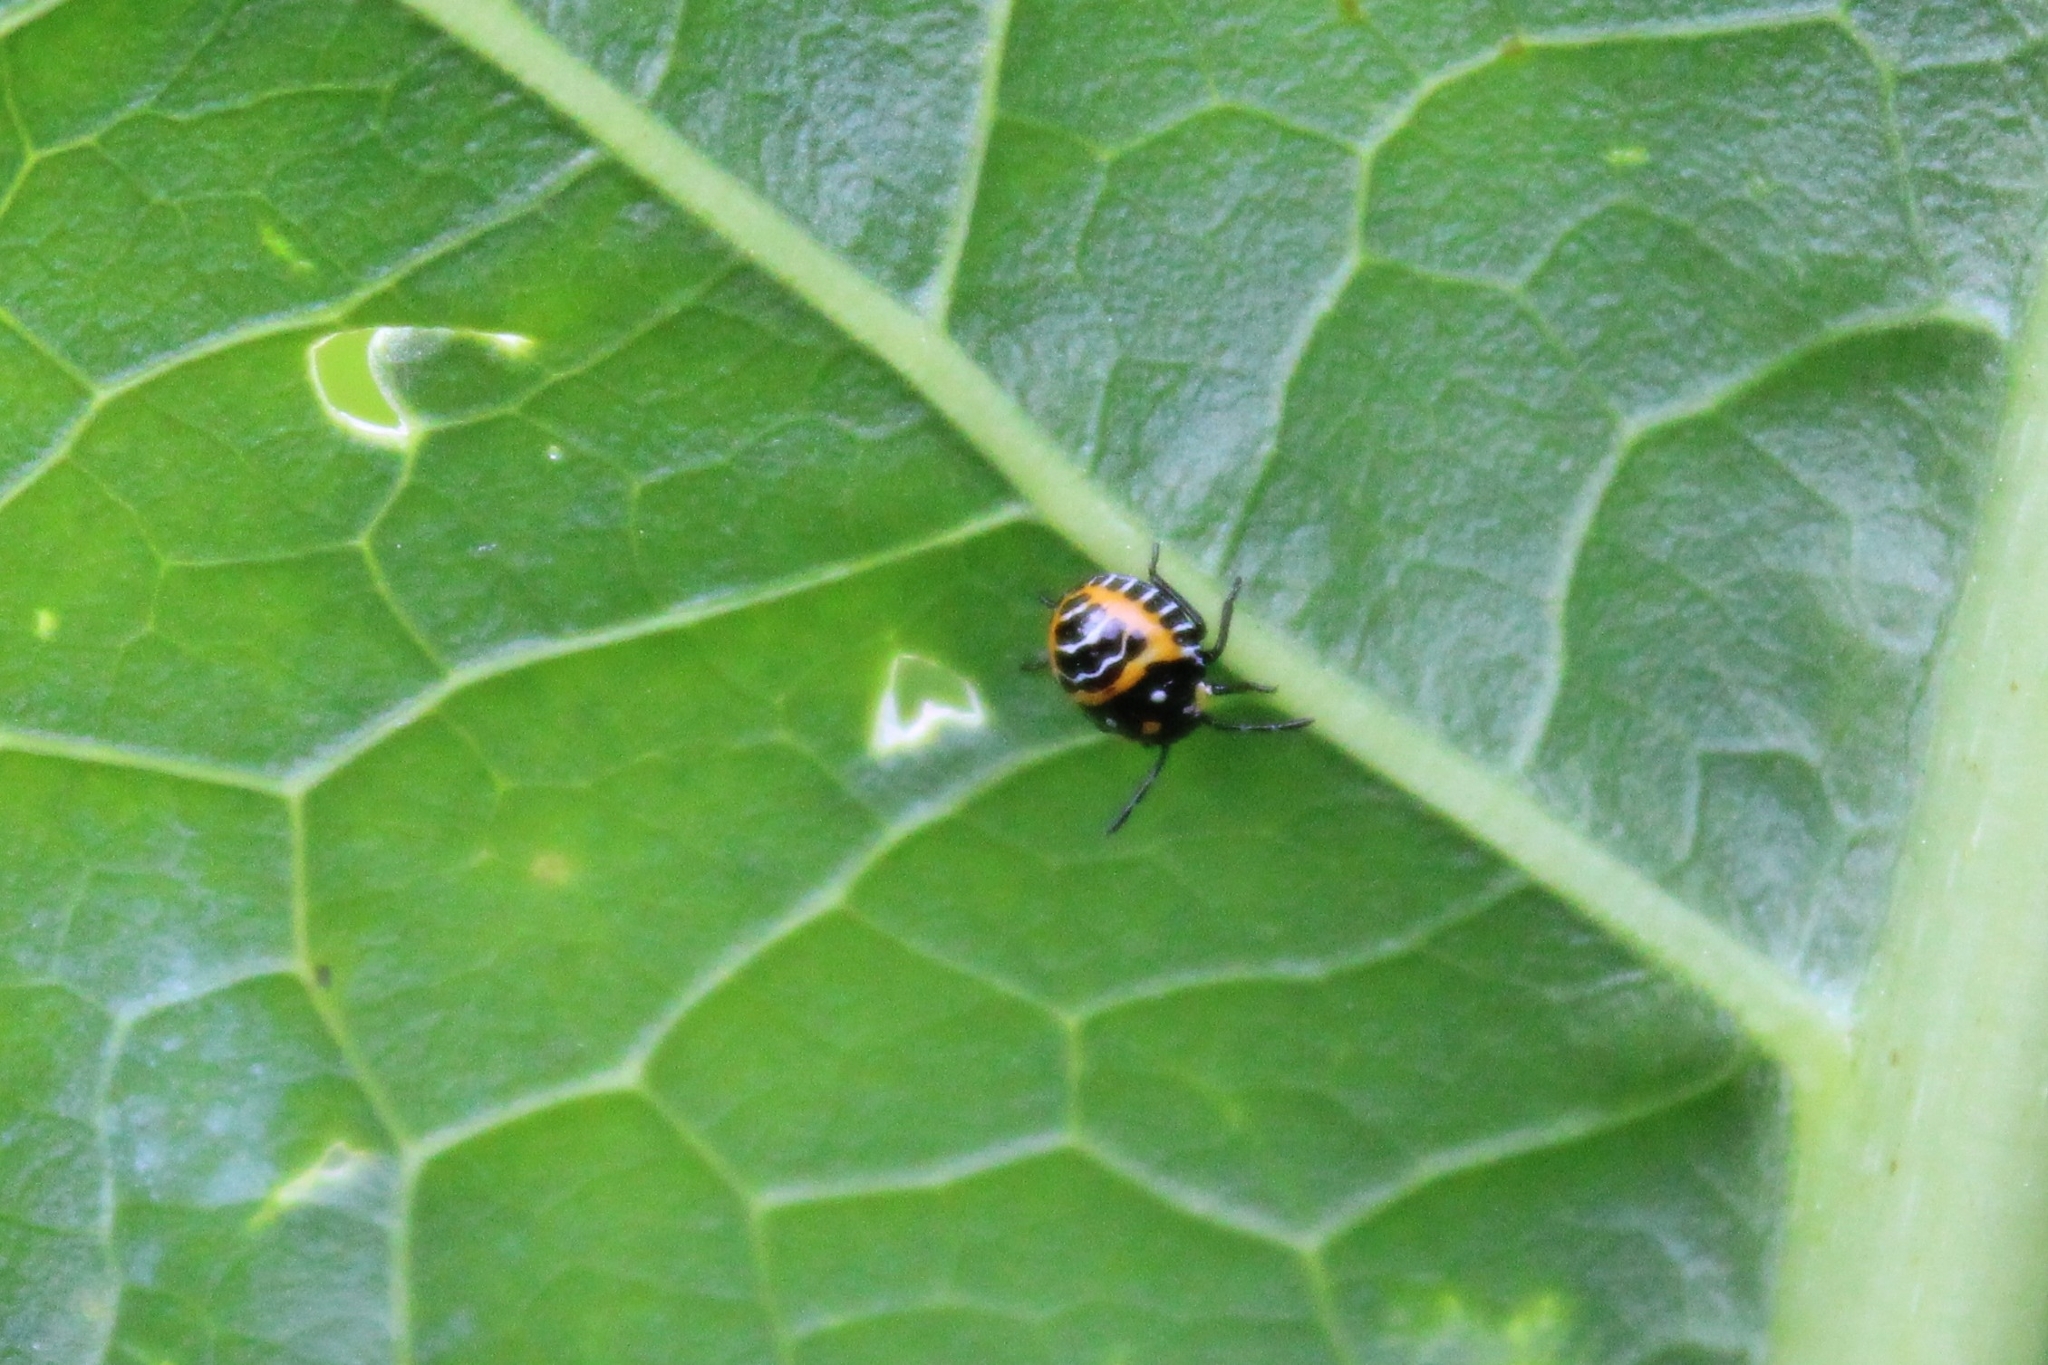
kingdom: Animalia
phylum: Arthropoda
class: Insecta
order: Hemiptera
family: Pentatomidae
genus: Murgantia
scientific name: Murgantia histrionica
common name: Harlequin bug
